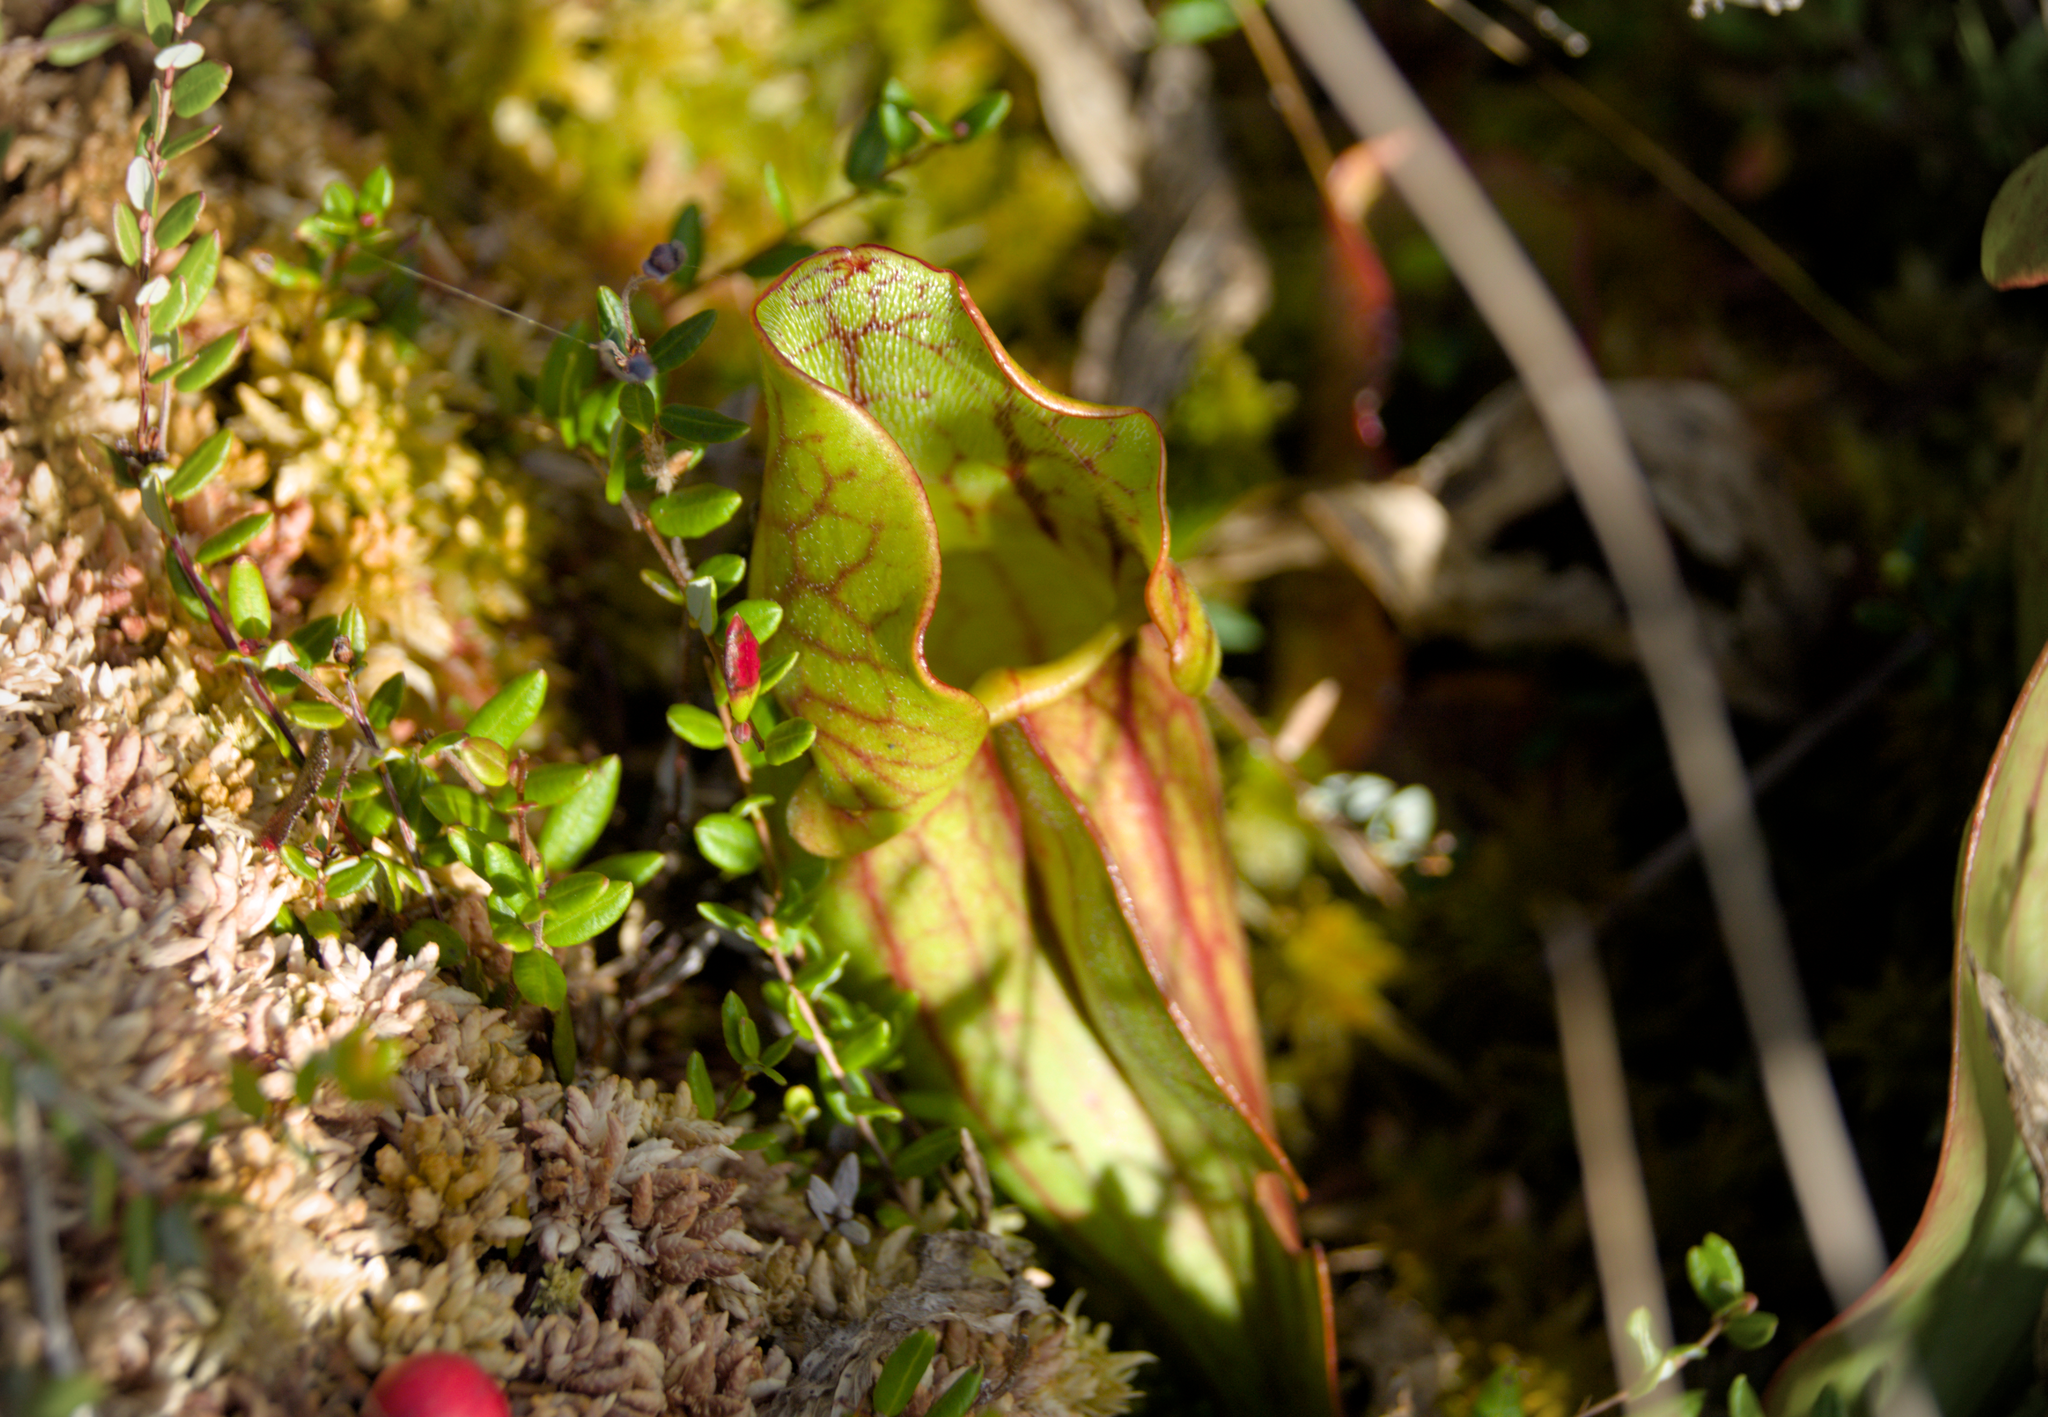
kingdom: Plantae
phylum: Tracheophyta
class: Magnoliopsida
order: Ericales
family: Sarraceniaceae
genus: Sarracenia
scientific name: Sarracenia purpurea
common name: Pitcherplant
